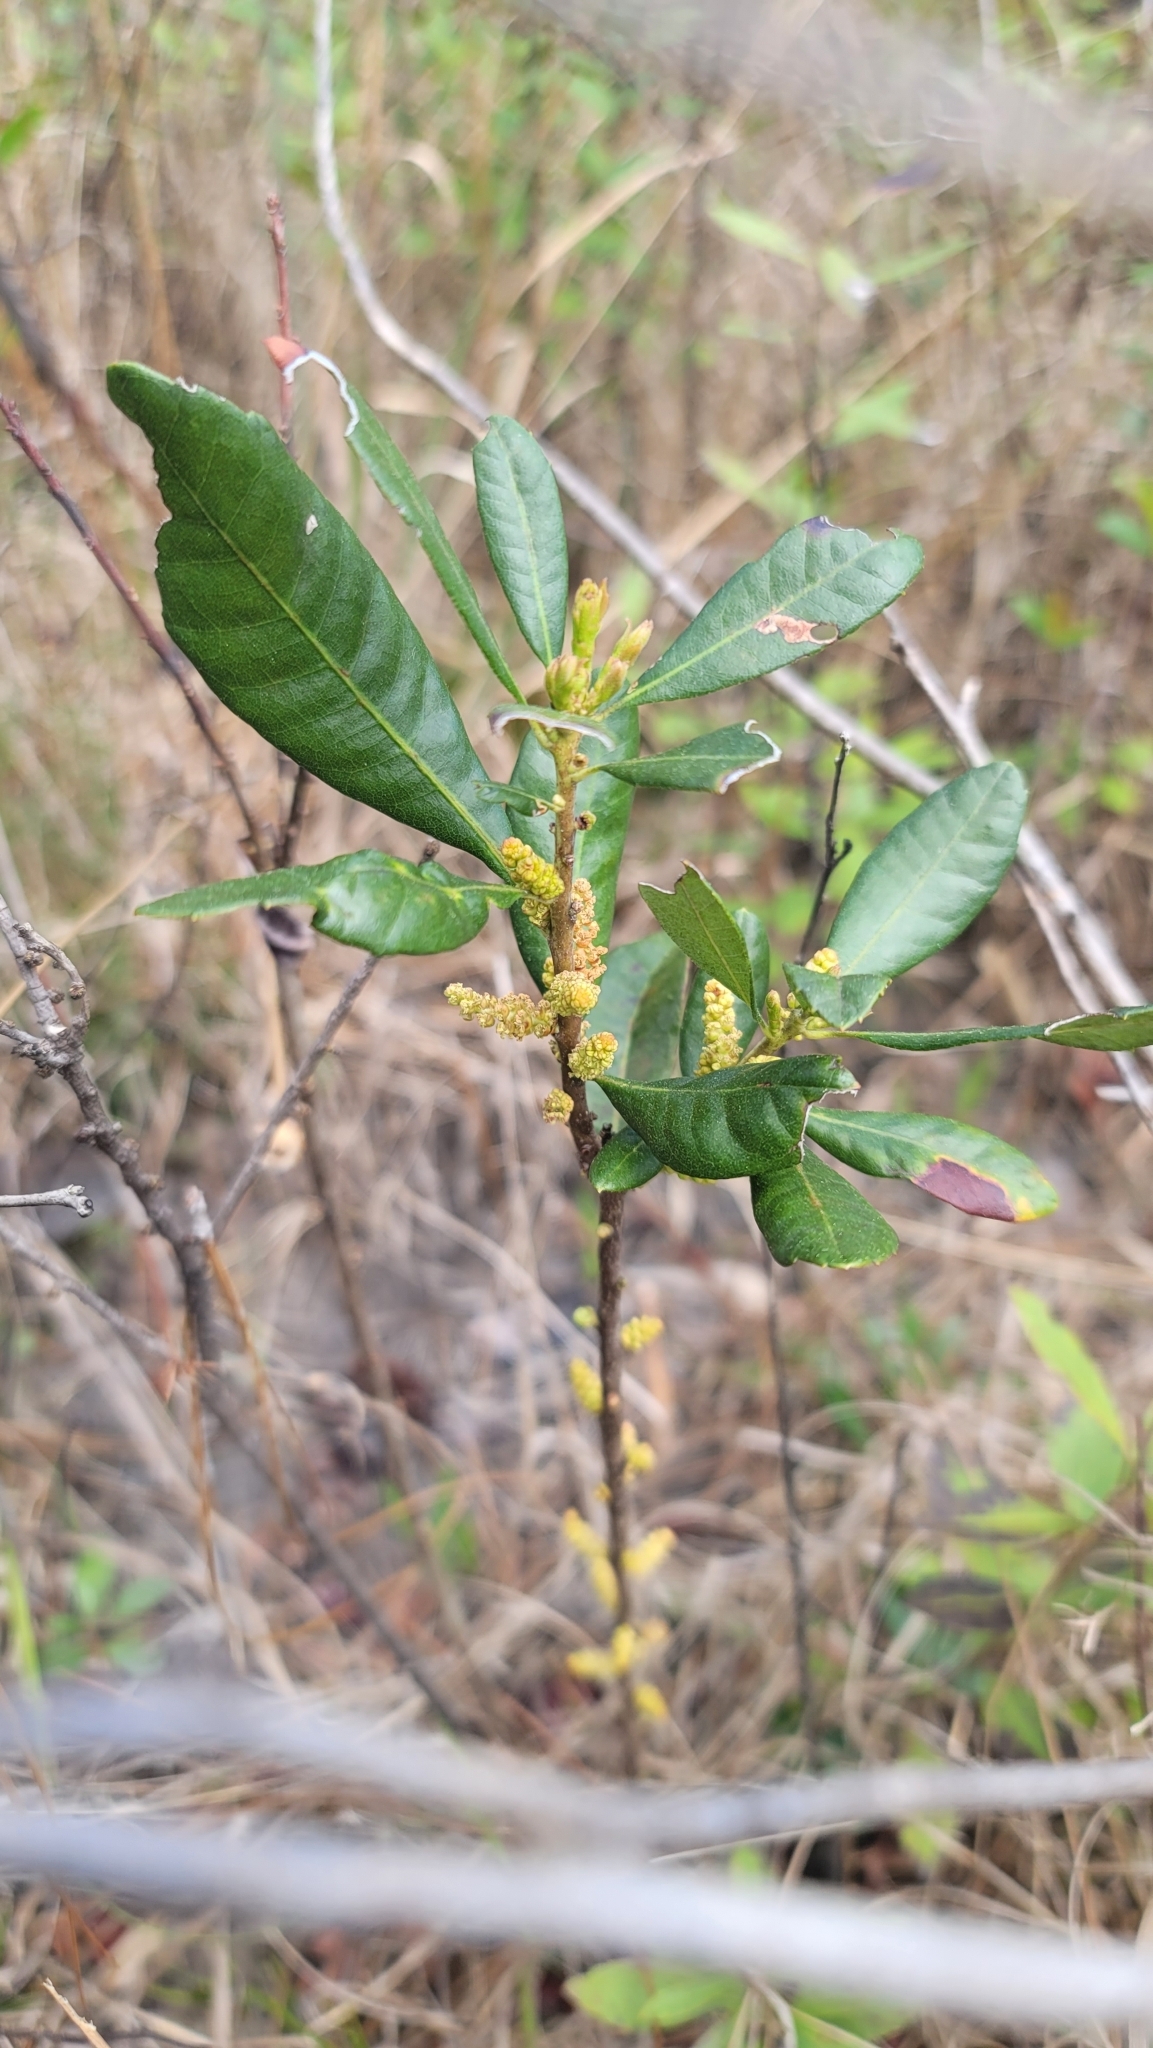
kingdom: Plantae
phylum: Tracheophyta
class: Magnoliopsida
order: Fagales
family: Myricaceae
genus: Morella
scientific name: Morella caroliniensis
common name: Evergreen bayberry
